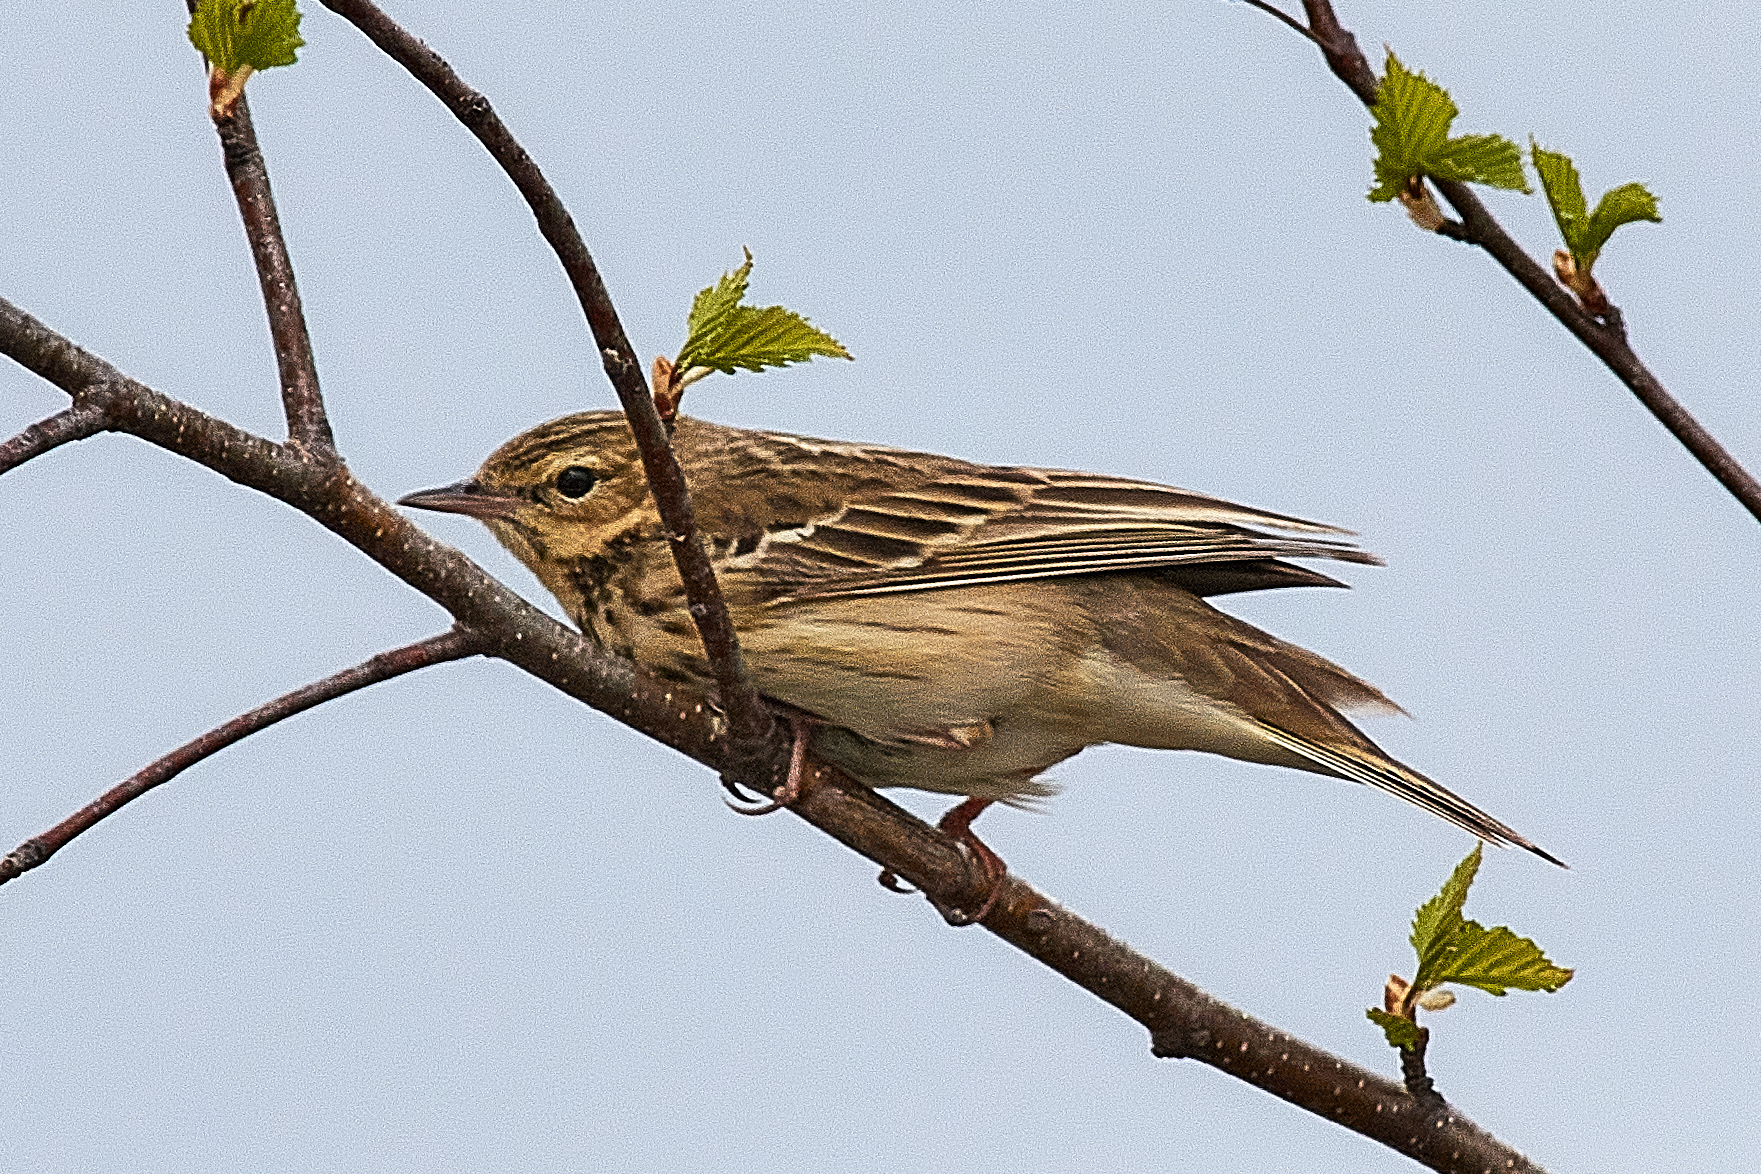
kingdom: Animalia
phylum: Chordata
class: Aves
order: Passeriformes
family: Motacillidae
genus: Anthus
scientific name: Anthus trivialis
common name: Tree pipit
